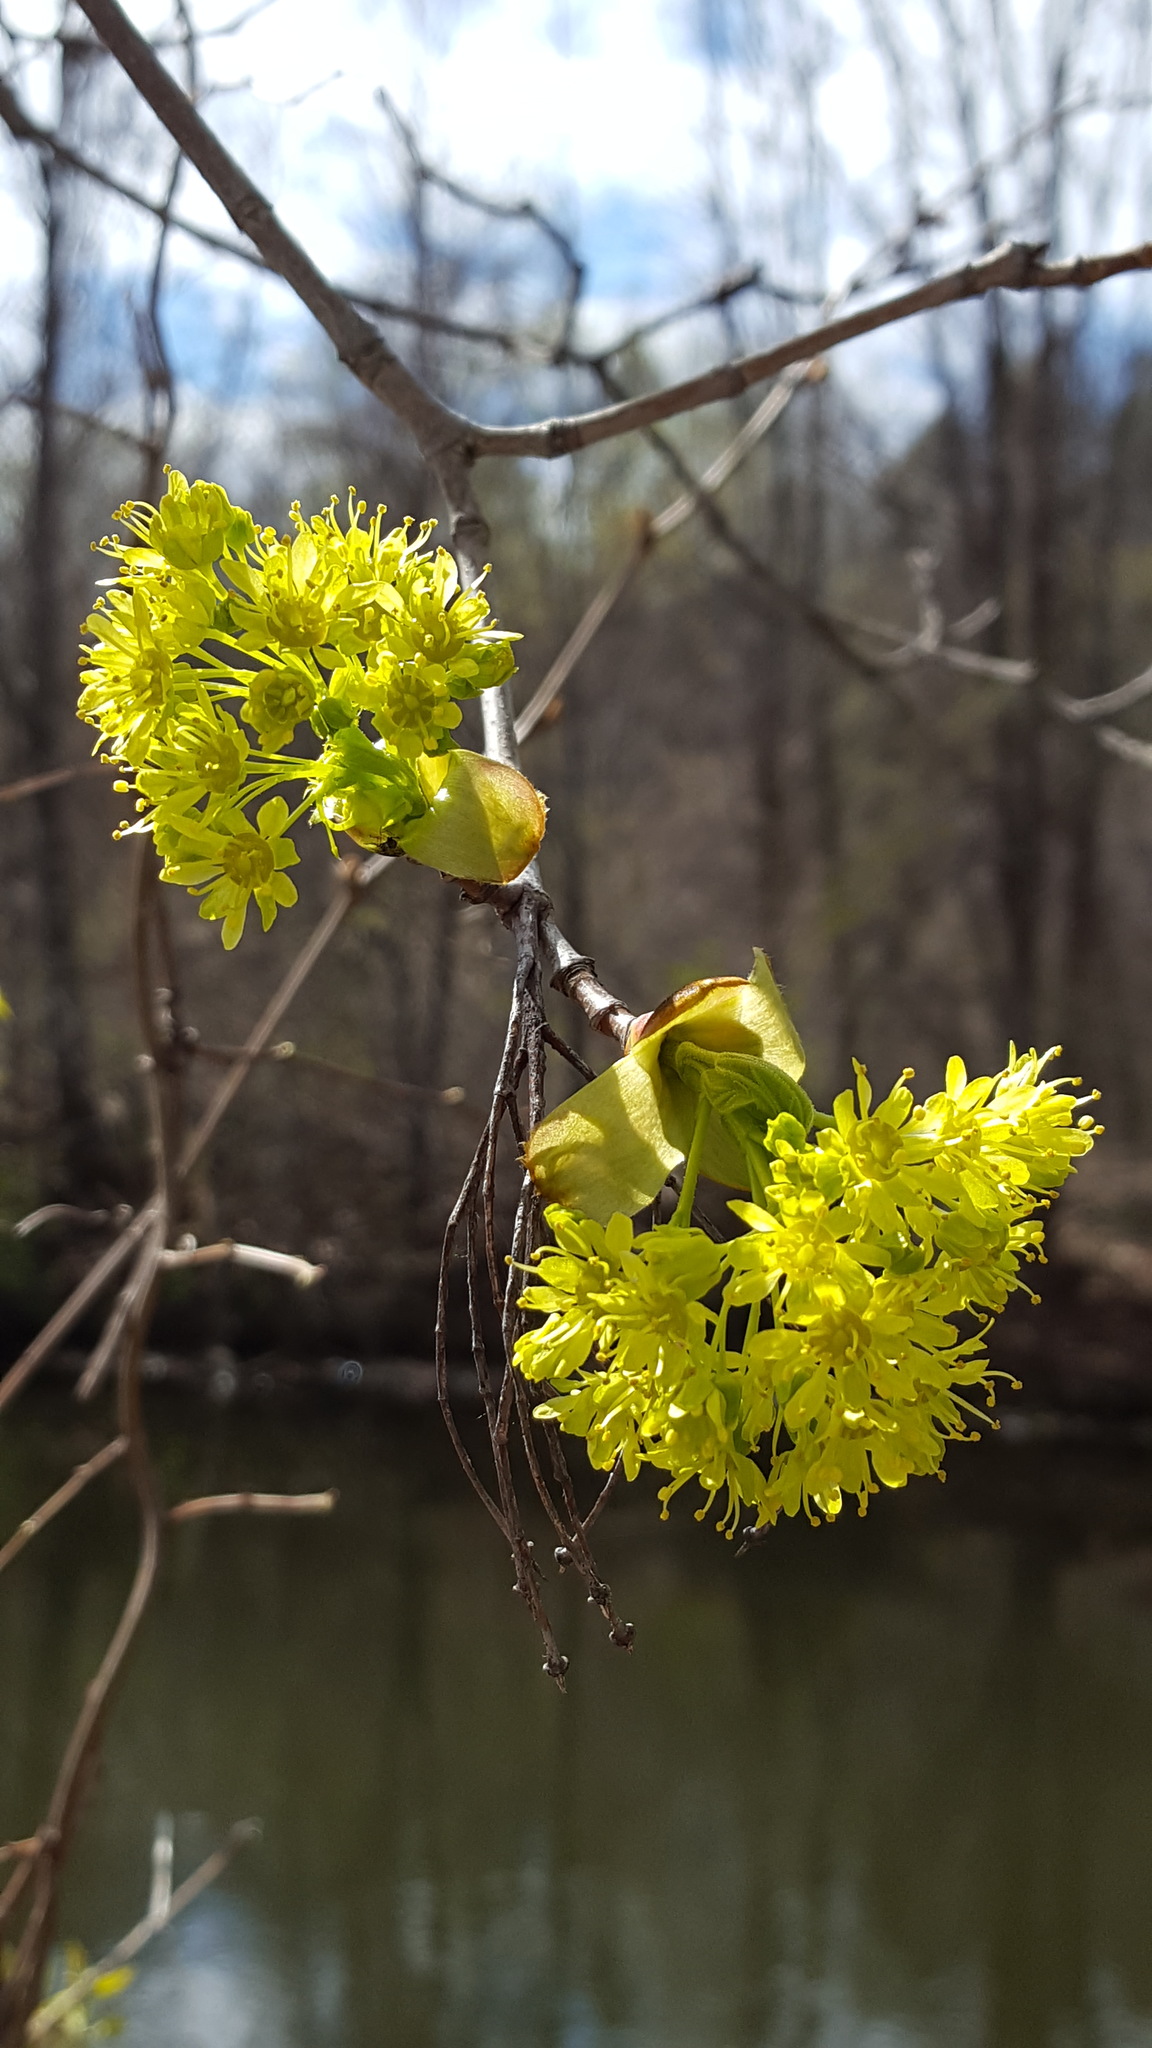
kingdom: Plantae
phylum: Tracheophyta
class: Magnoliopsida
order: Sapindales
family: Sapindaceae
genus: Acer
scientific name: Acer platanoides
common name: Norway maple
